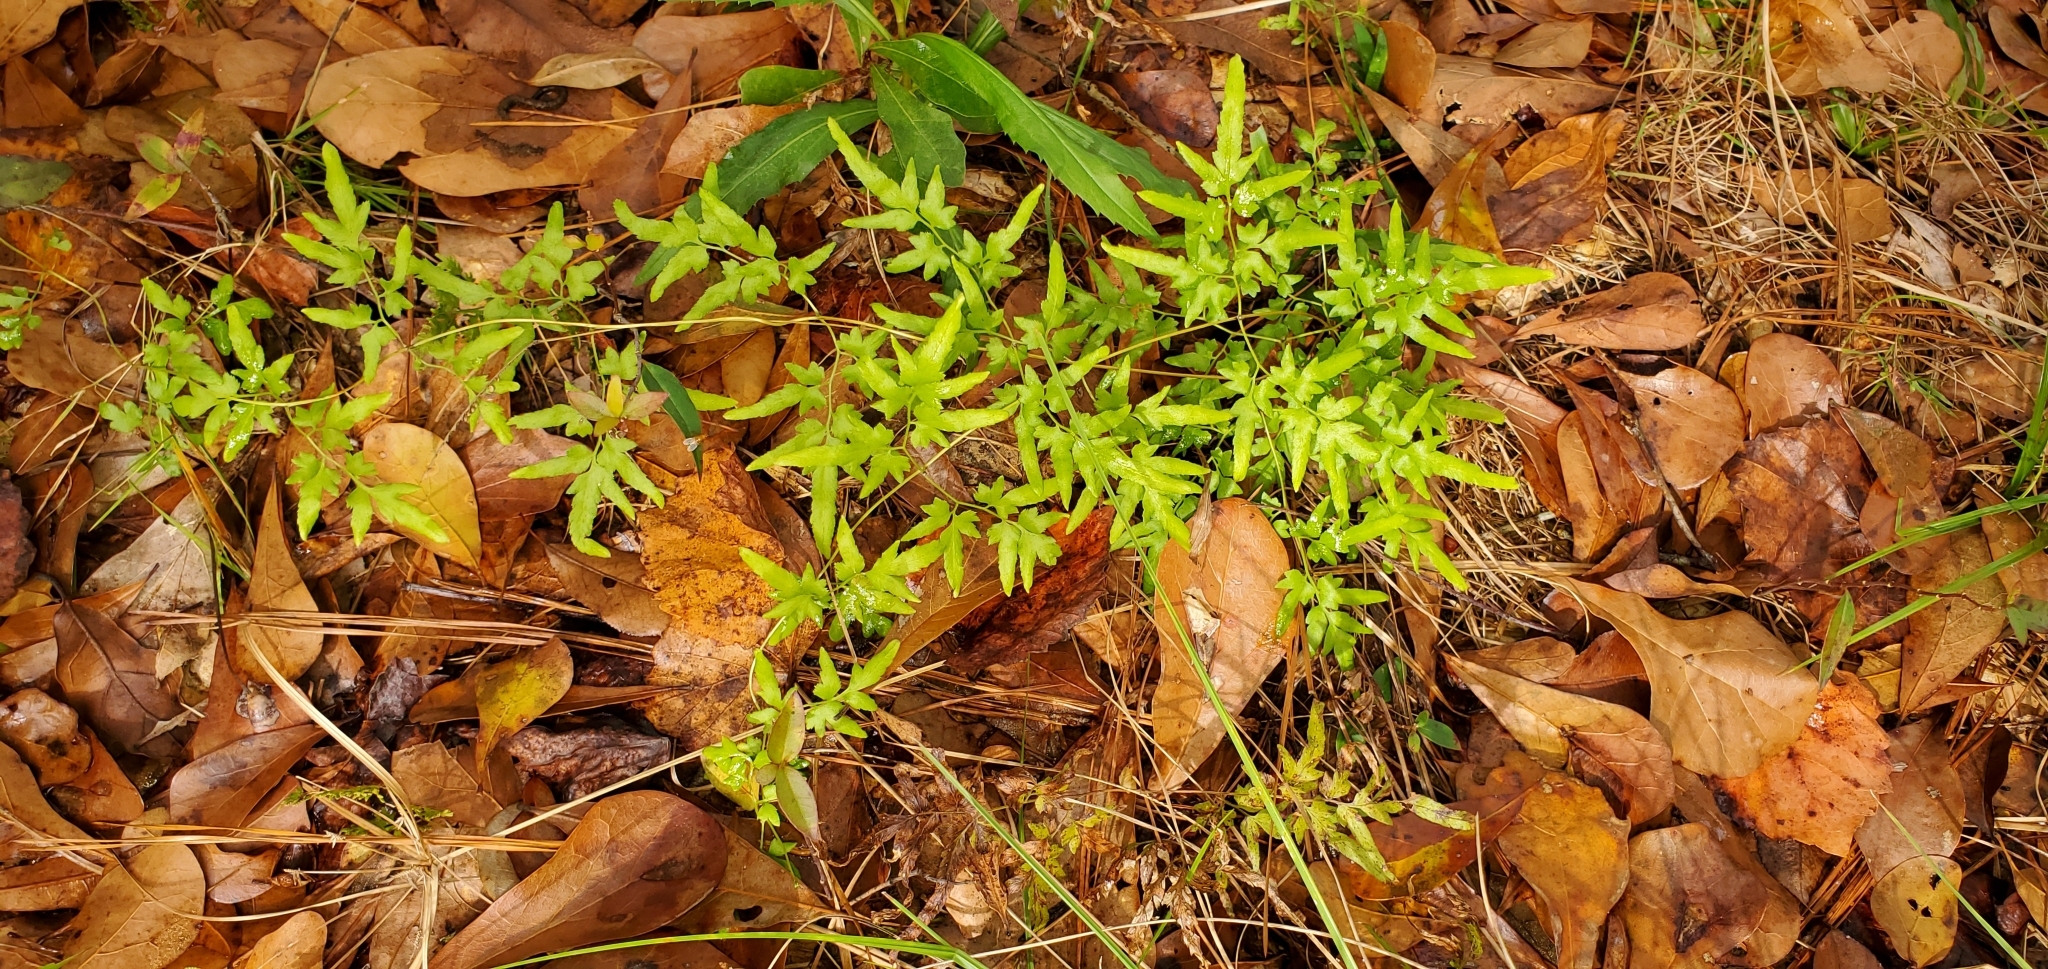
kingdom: Plantae
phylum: Tracheophyta
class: Polypodiopsida
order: Schizaeales
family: Lygodiaceae
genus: Lygodium
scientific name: Lygodium japonicum
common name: Japanese climbing fern
